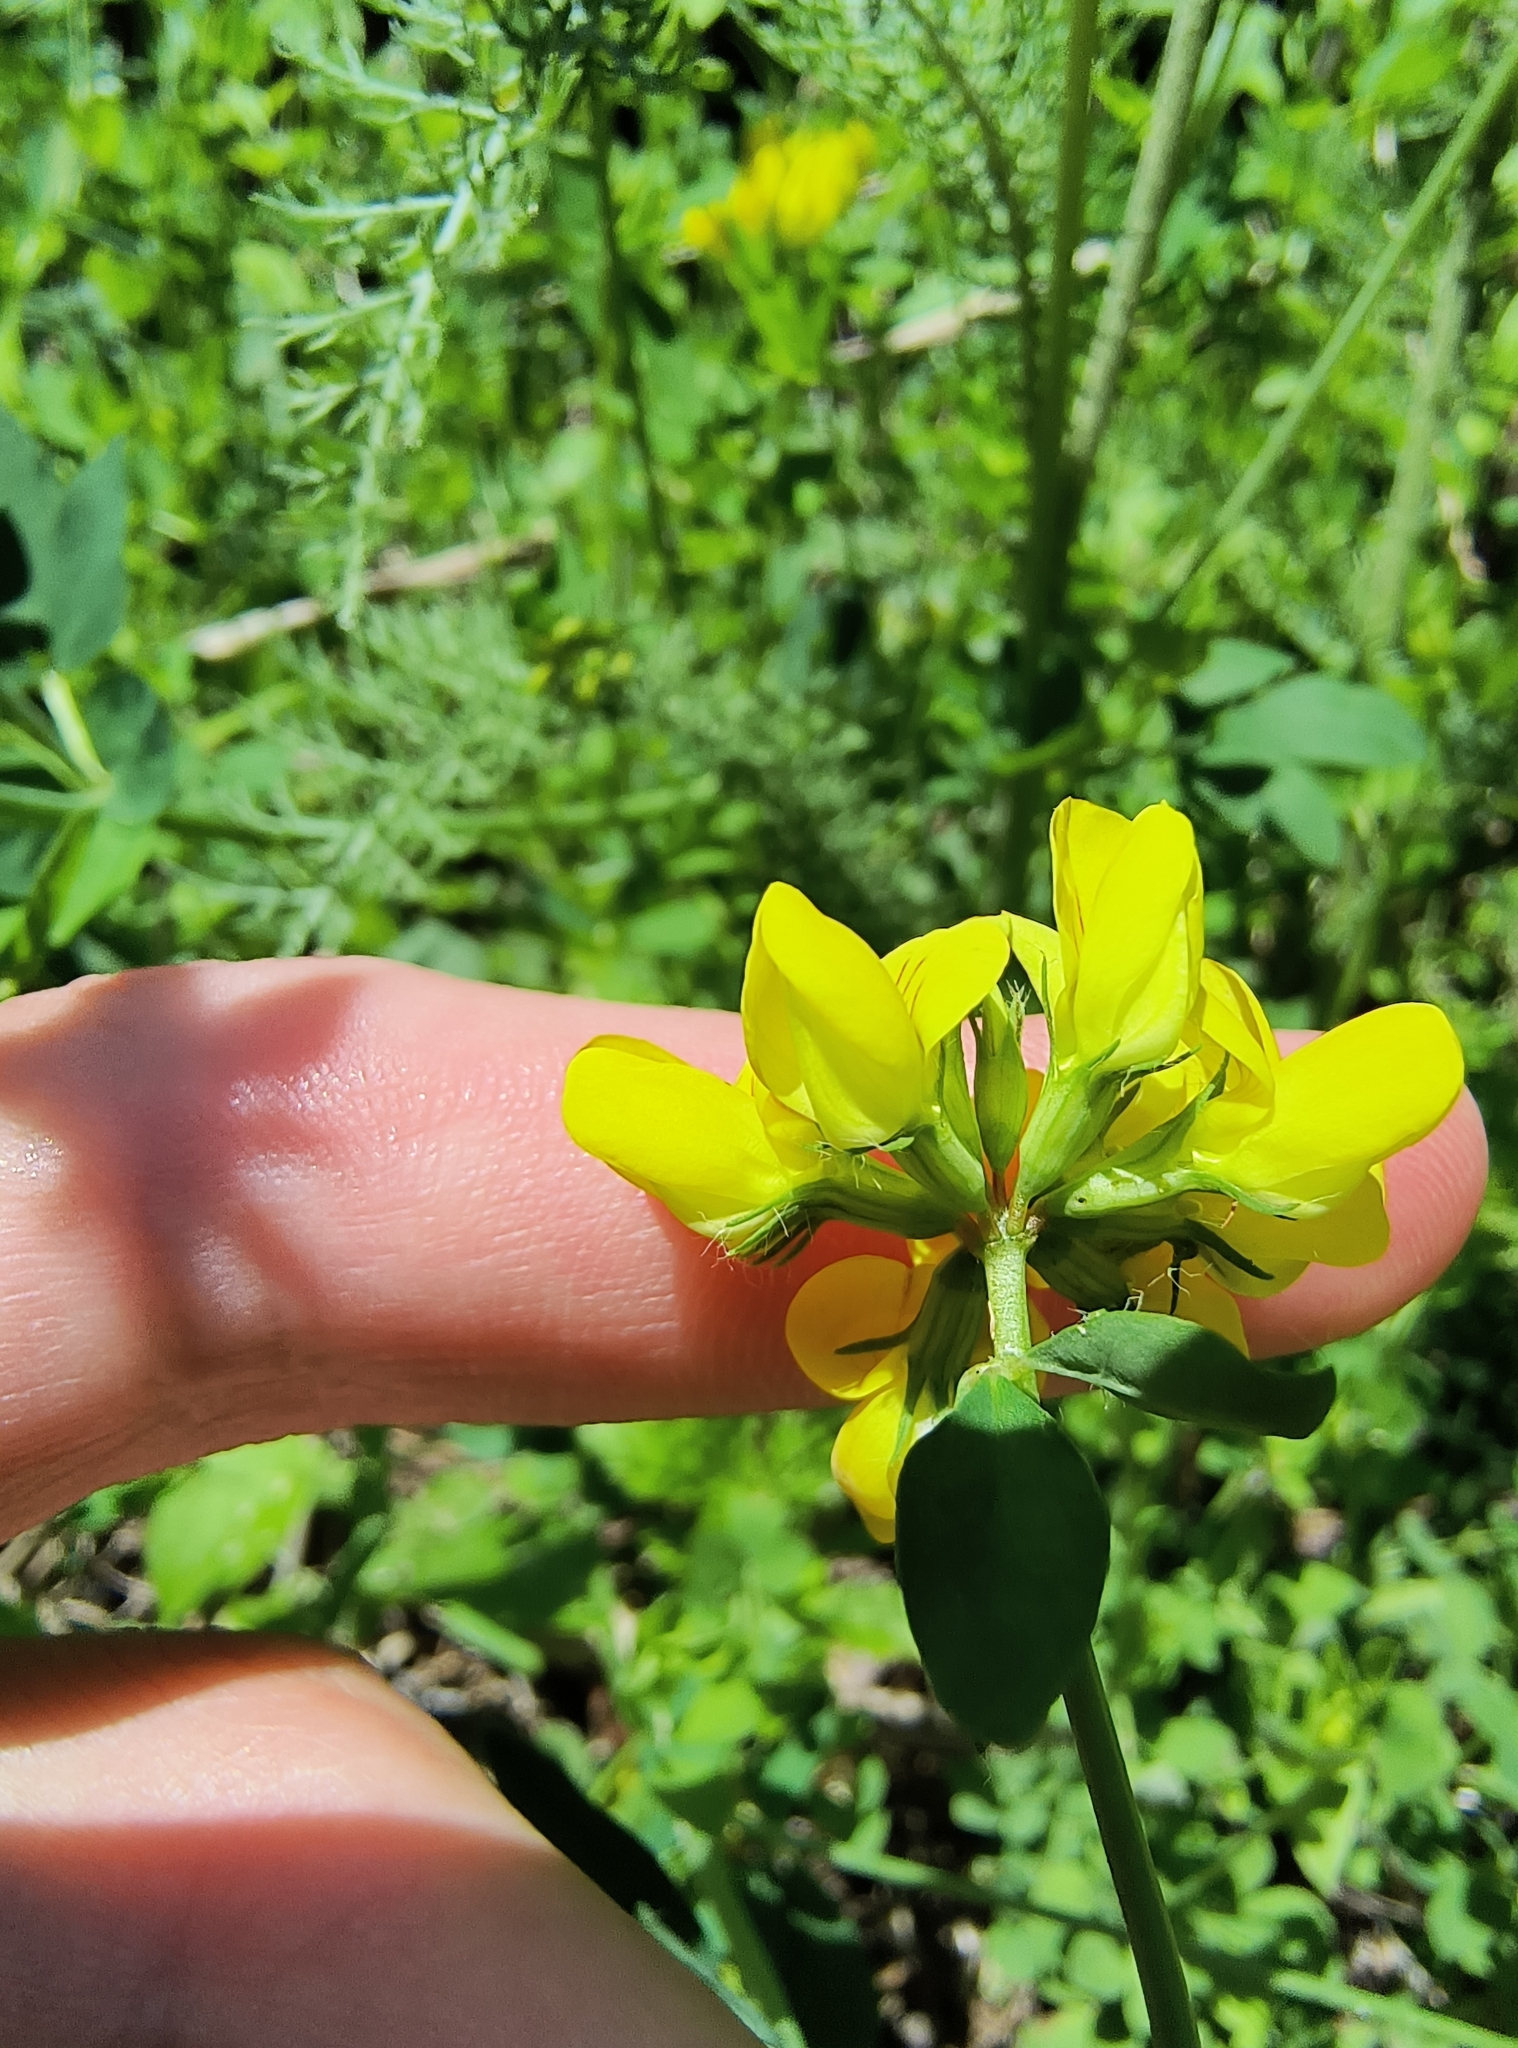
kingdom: Plantae
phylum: Tracheophyta
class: Magnoliopsida
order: Fabales
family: Fabaceae
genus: Lotus
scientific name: Lotus corniculatus
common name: Common bird's-foot-trefoil
